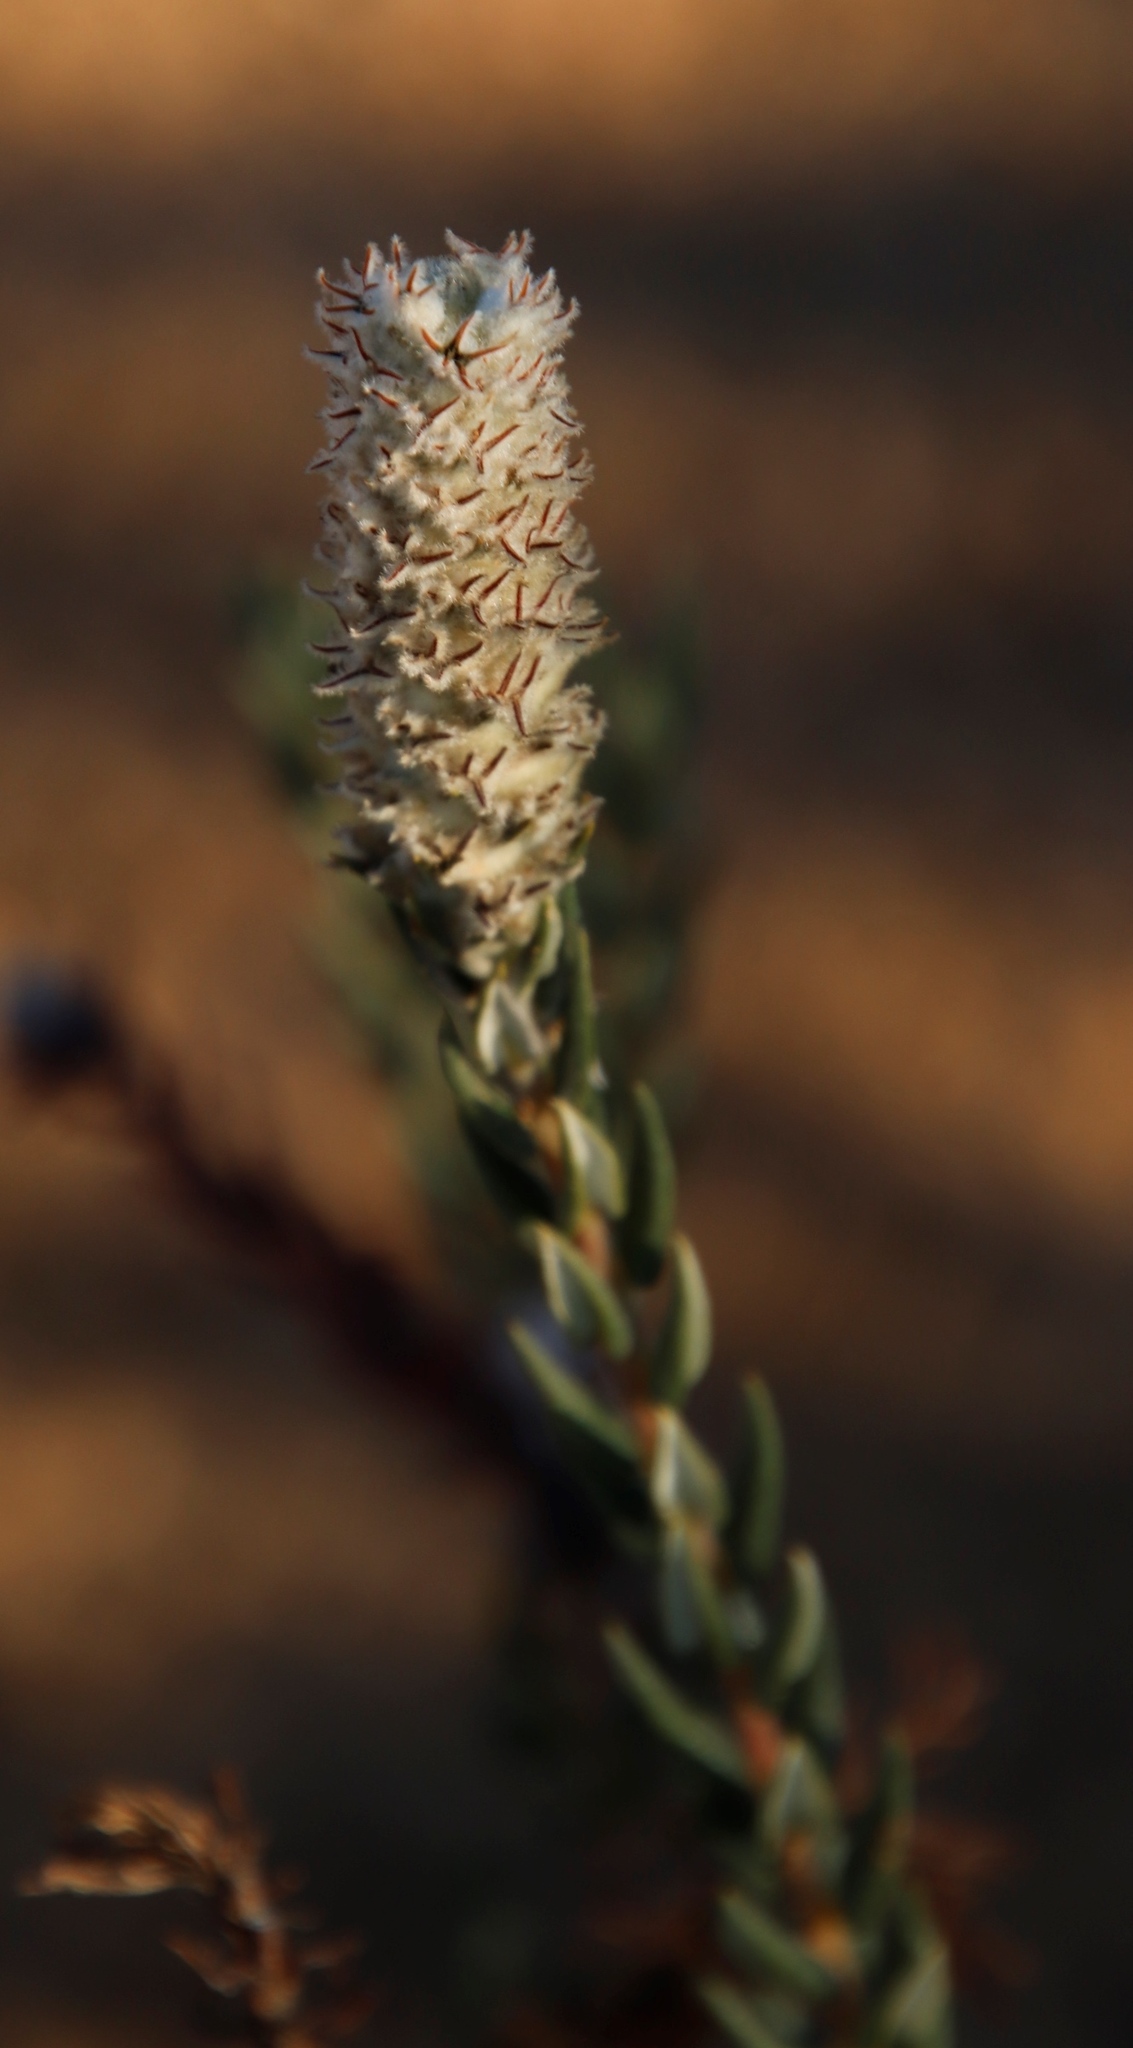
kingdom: Plantae
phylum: Tracheophyta
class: Magnoliopsida
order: Rosales
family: Rhamnaceae
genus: Phylica
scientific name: Phylica spicata
